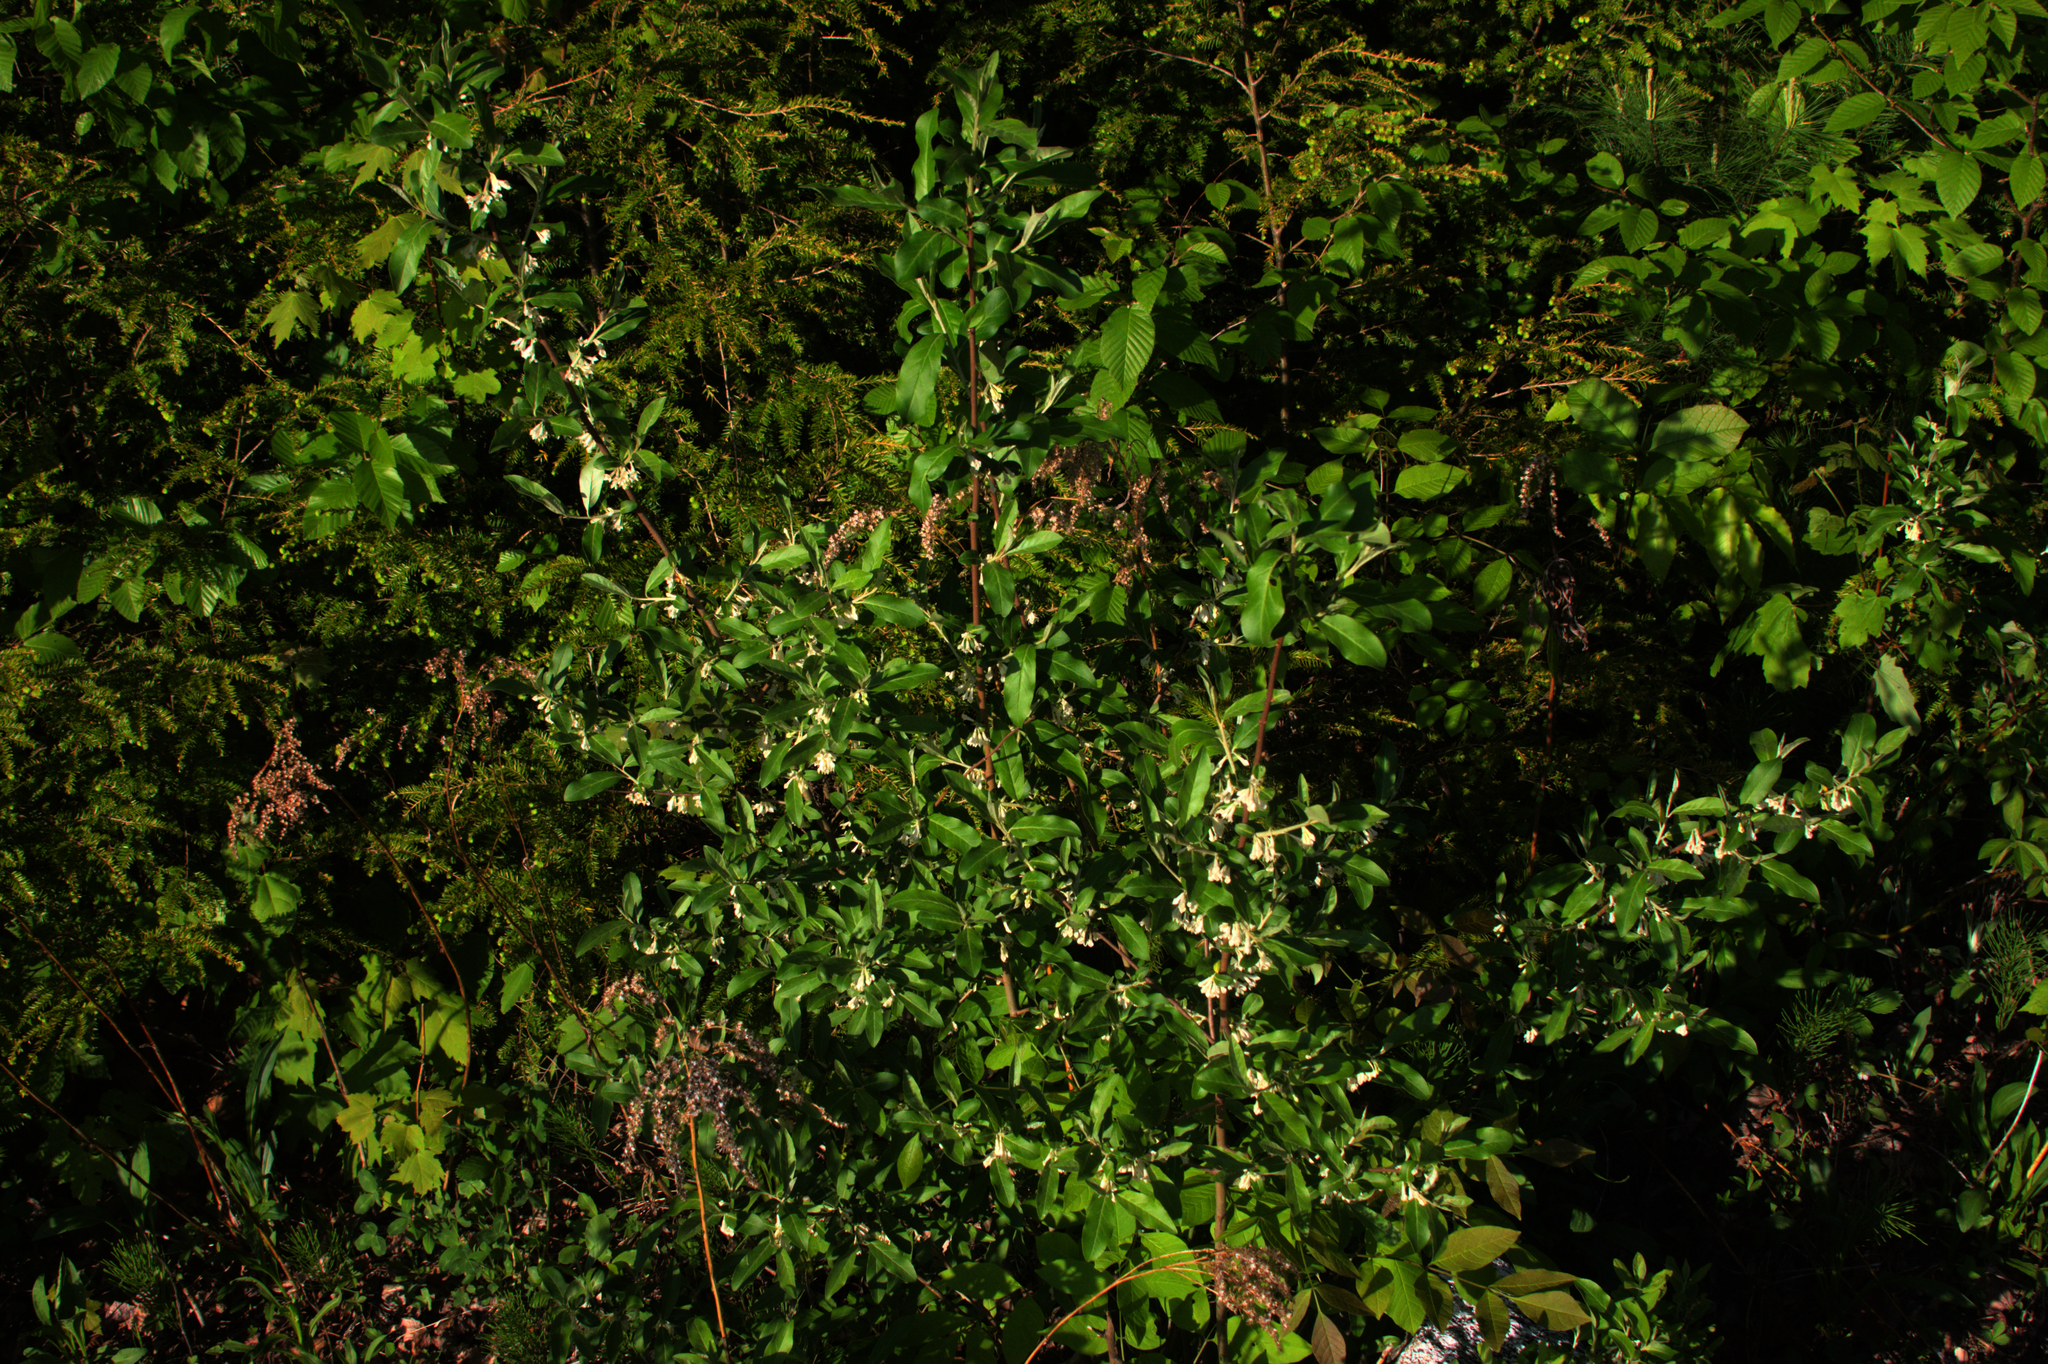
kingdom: Plantae
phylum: Tracheophyta
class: Magnoliopsida
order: Rosales
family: Elaeagnaceae
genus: Elaeagnus
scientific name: Elaeagnus umbellata
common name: Autumn olive
